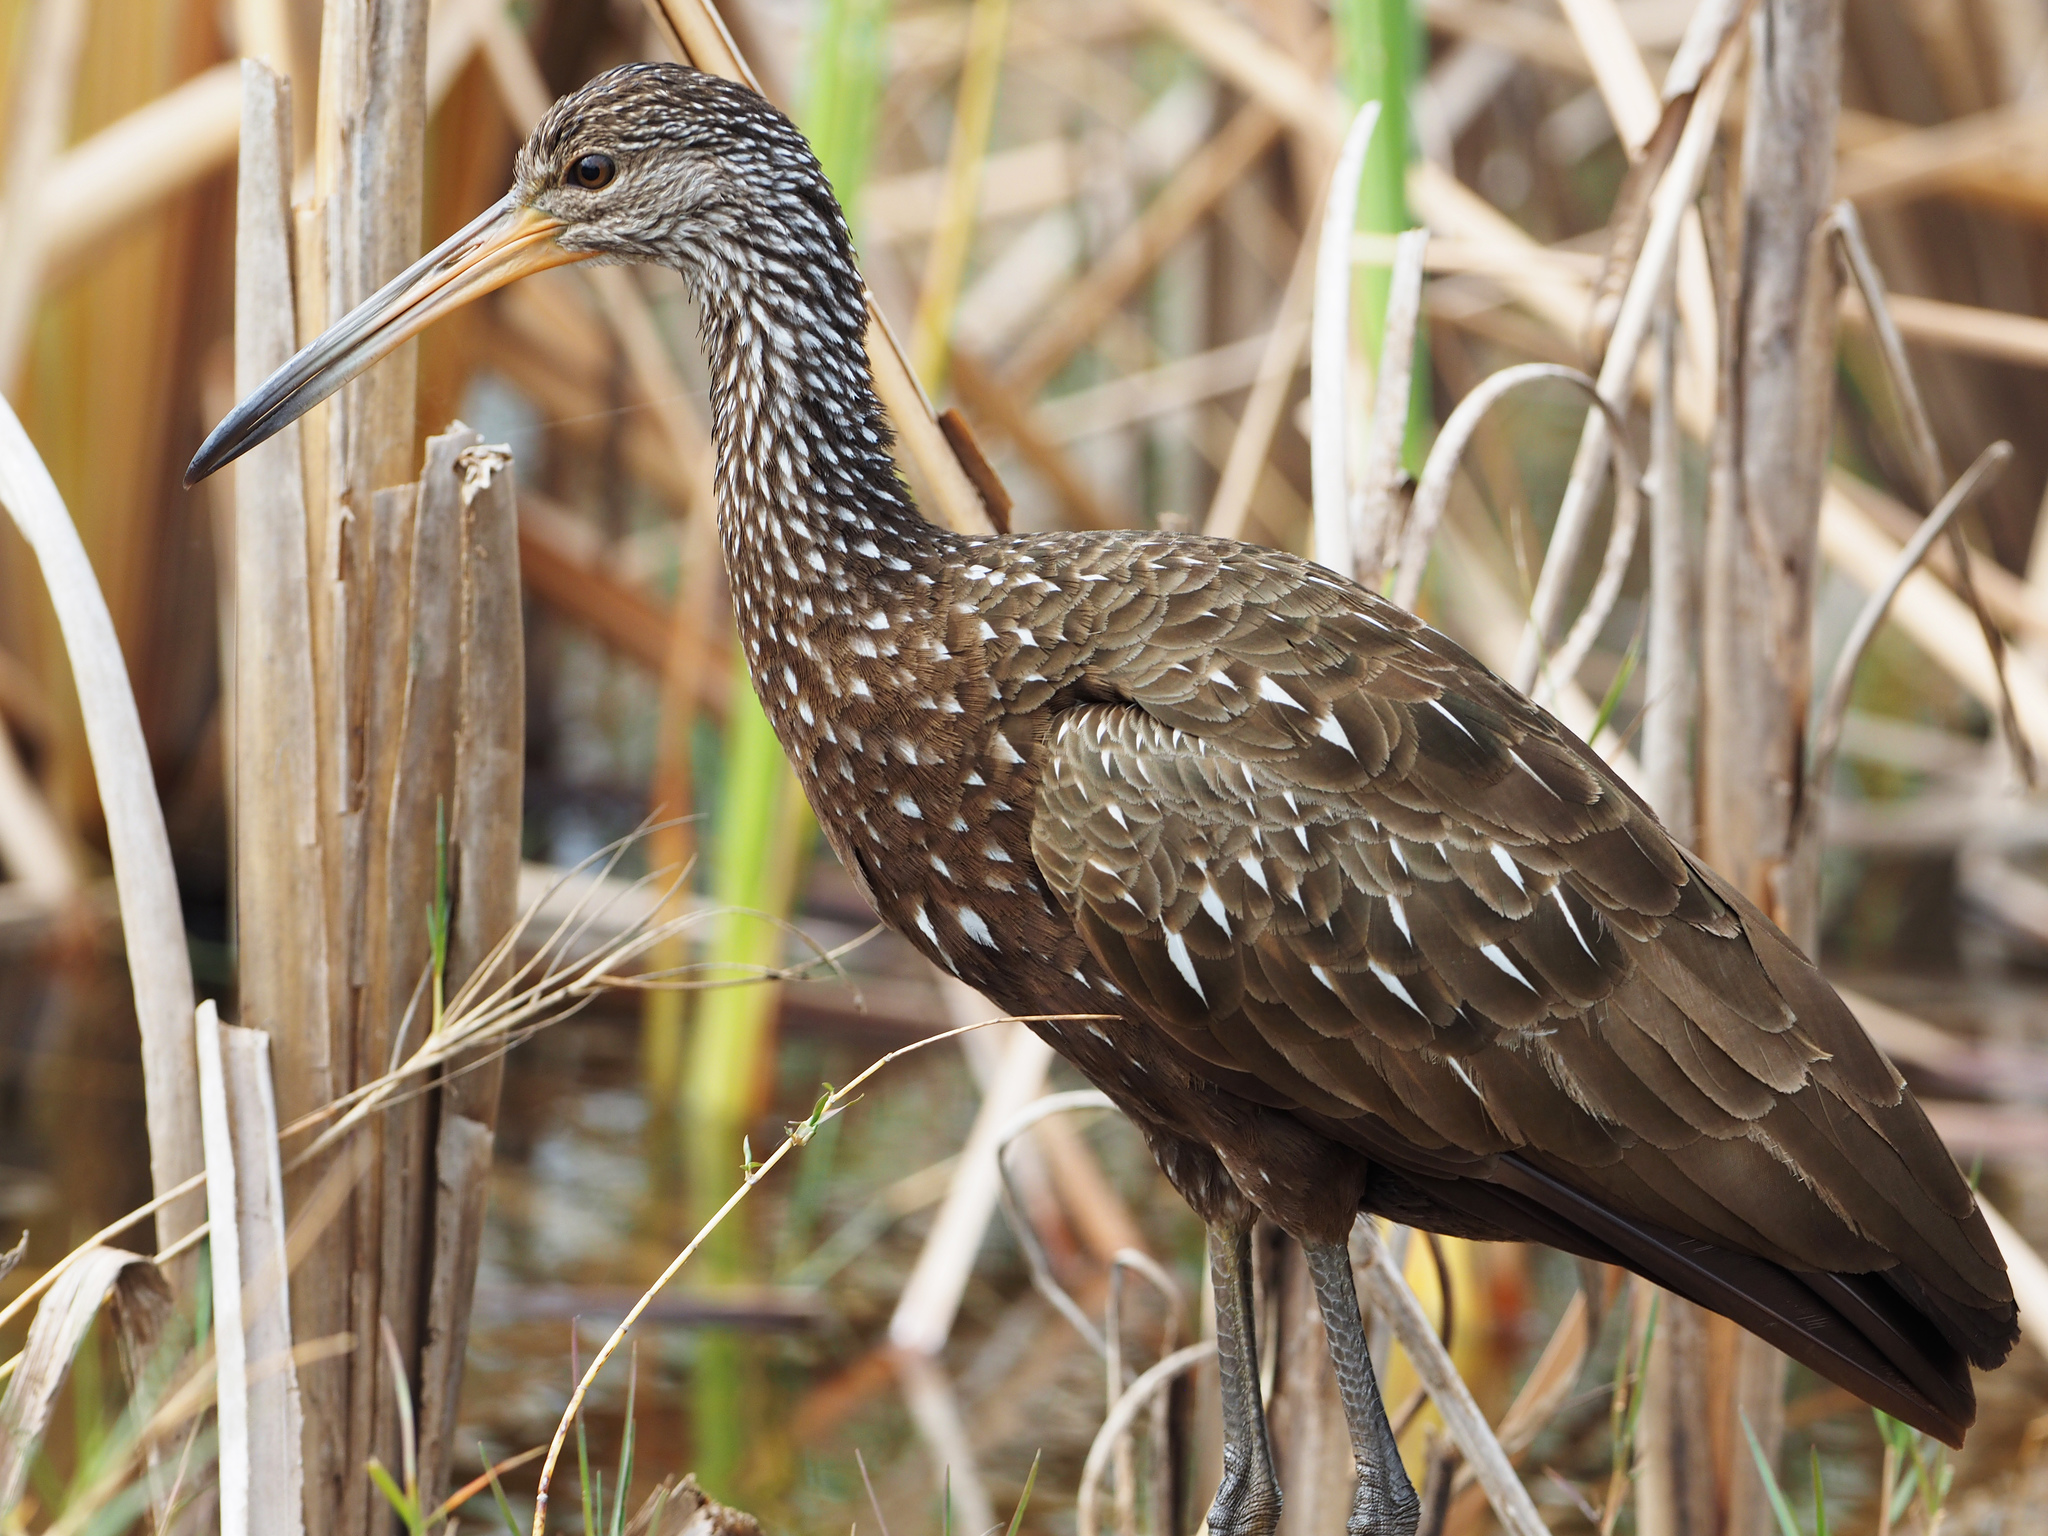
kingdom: Animalia
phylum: Chordata
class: Aves
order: Gruiformes
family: Aramidae
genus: Aramus
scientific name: Aramus guarauna
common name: Limpkin
